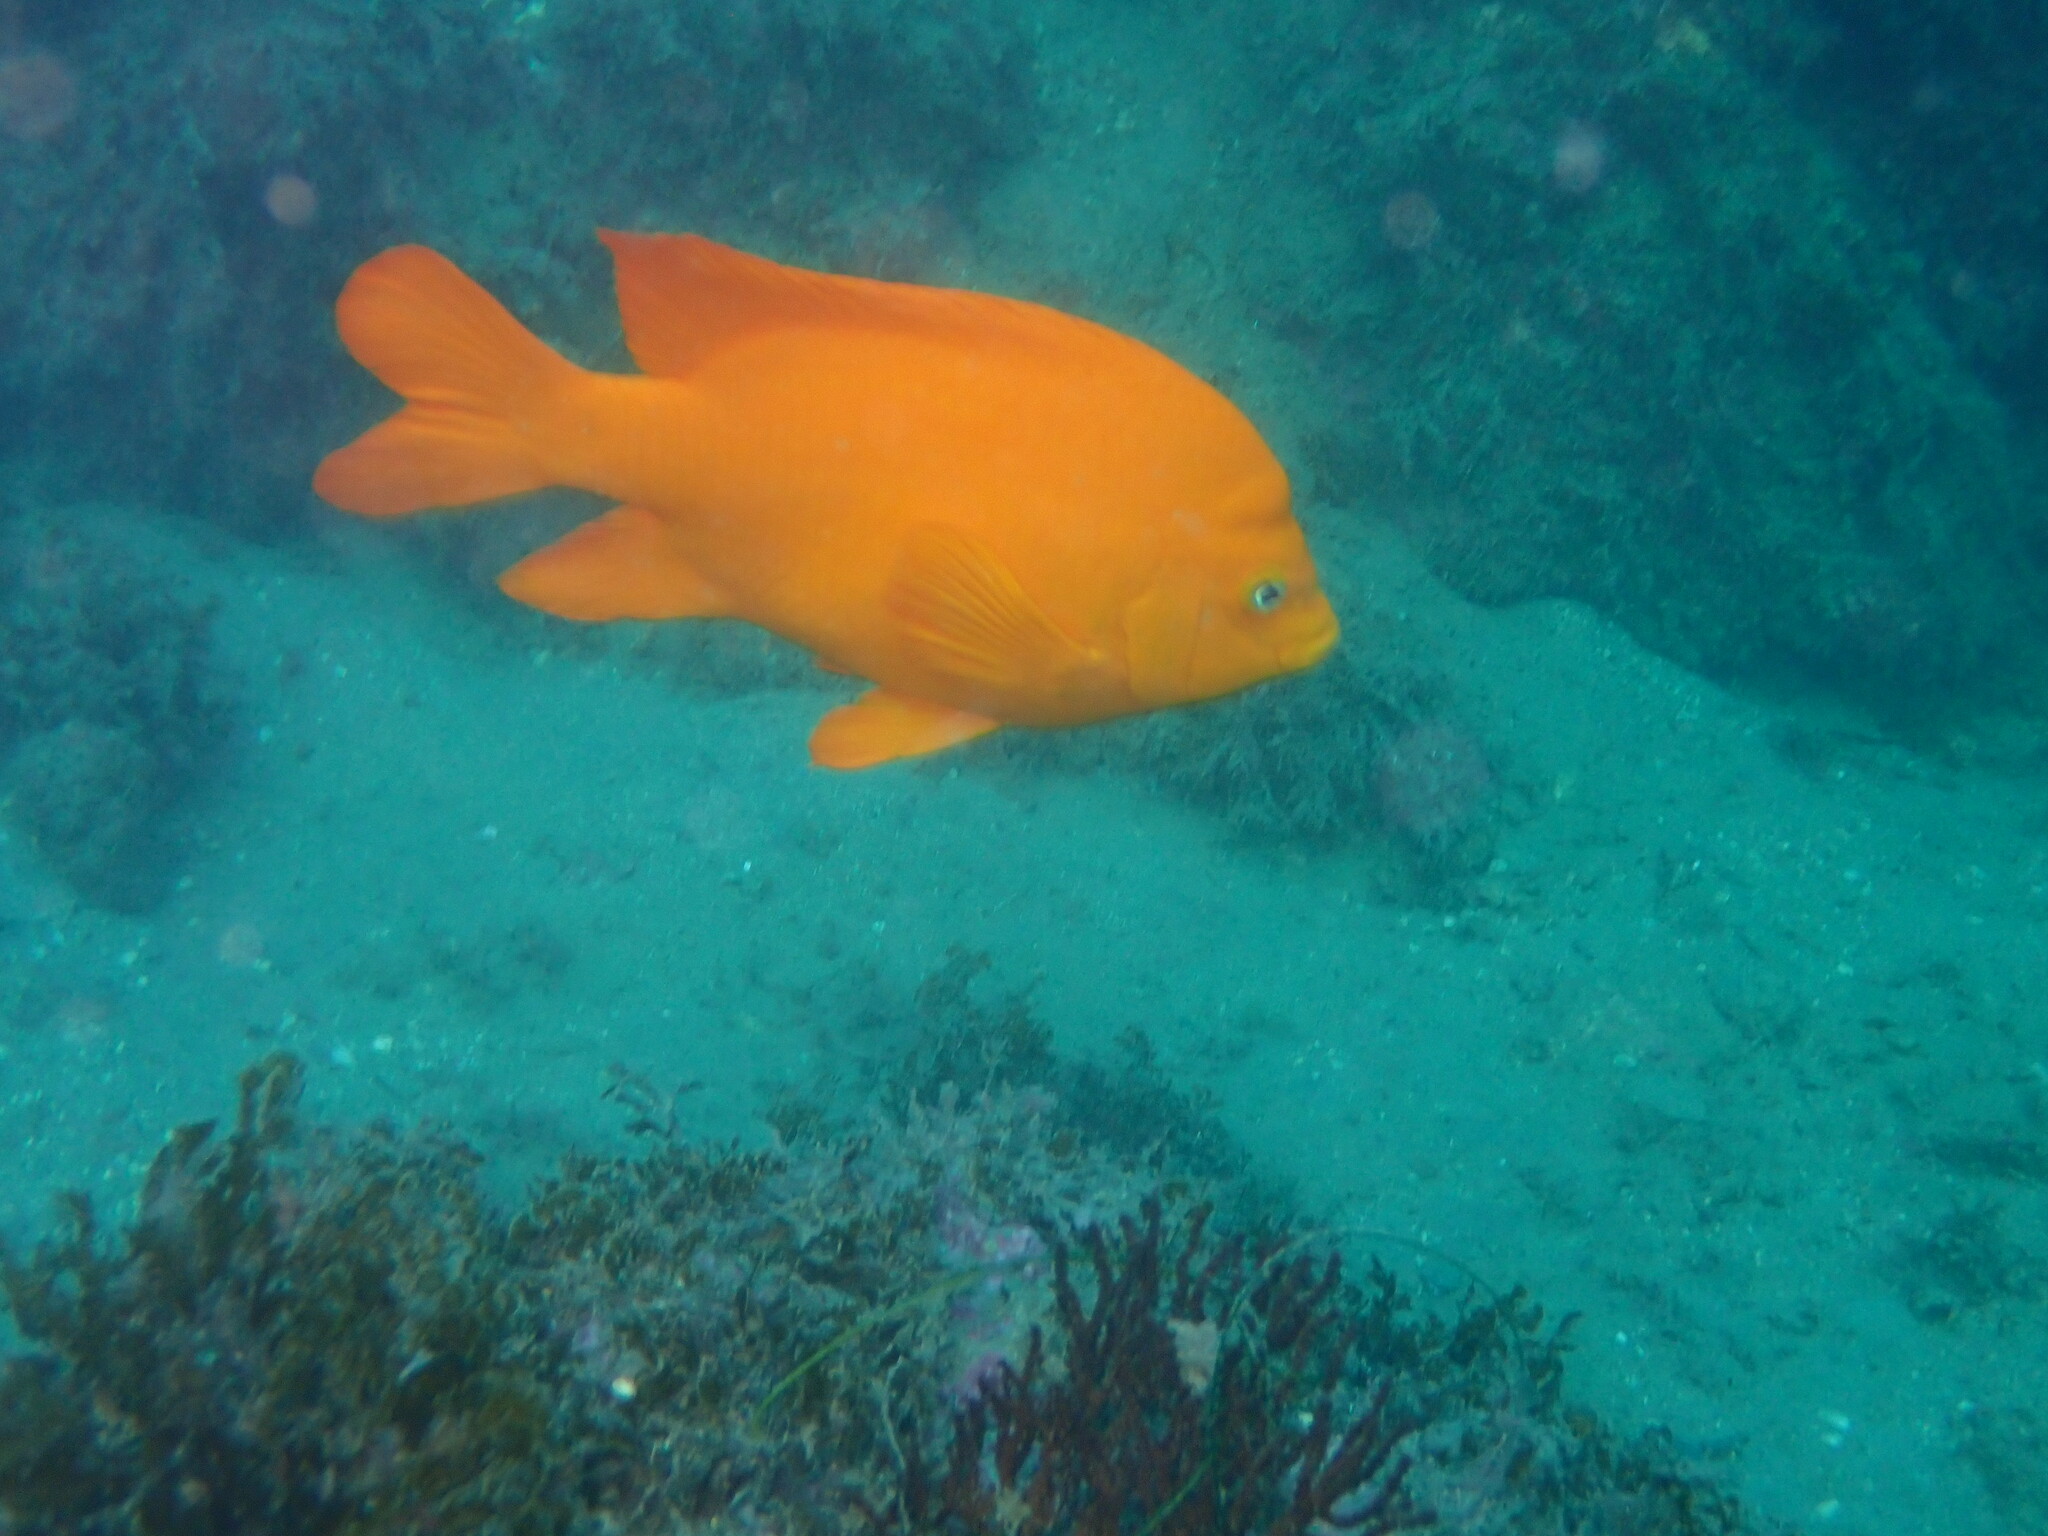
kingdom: Animalia
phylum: Chordata
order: Perciformes
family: Pomacentridae
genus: Hypsypops
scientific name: Hypsypops rubicundus
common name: Garibaldi
